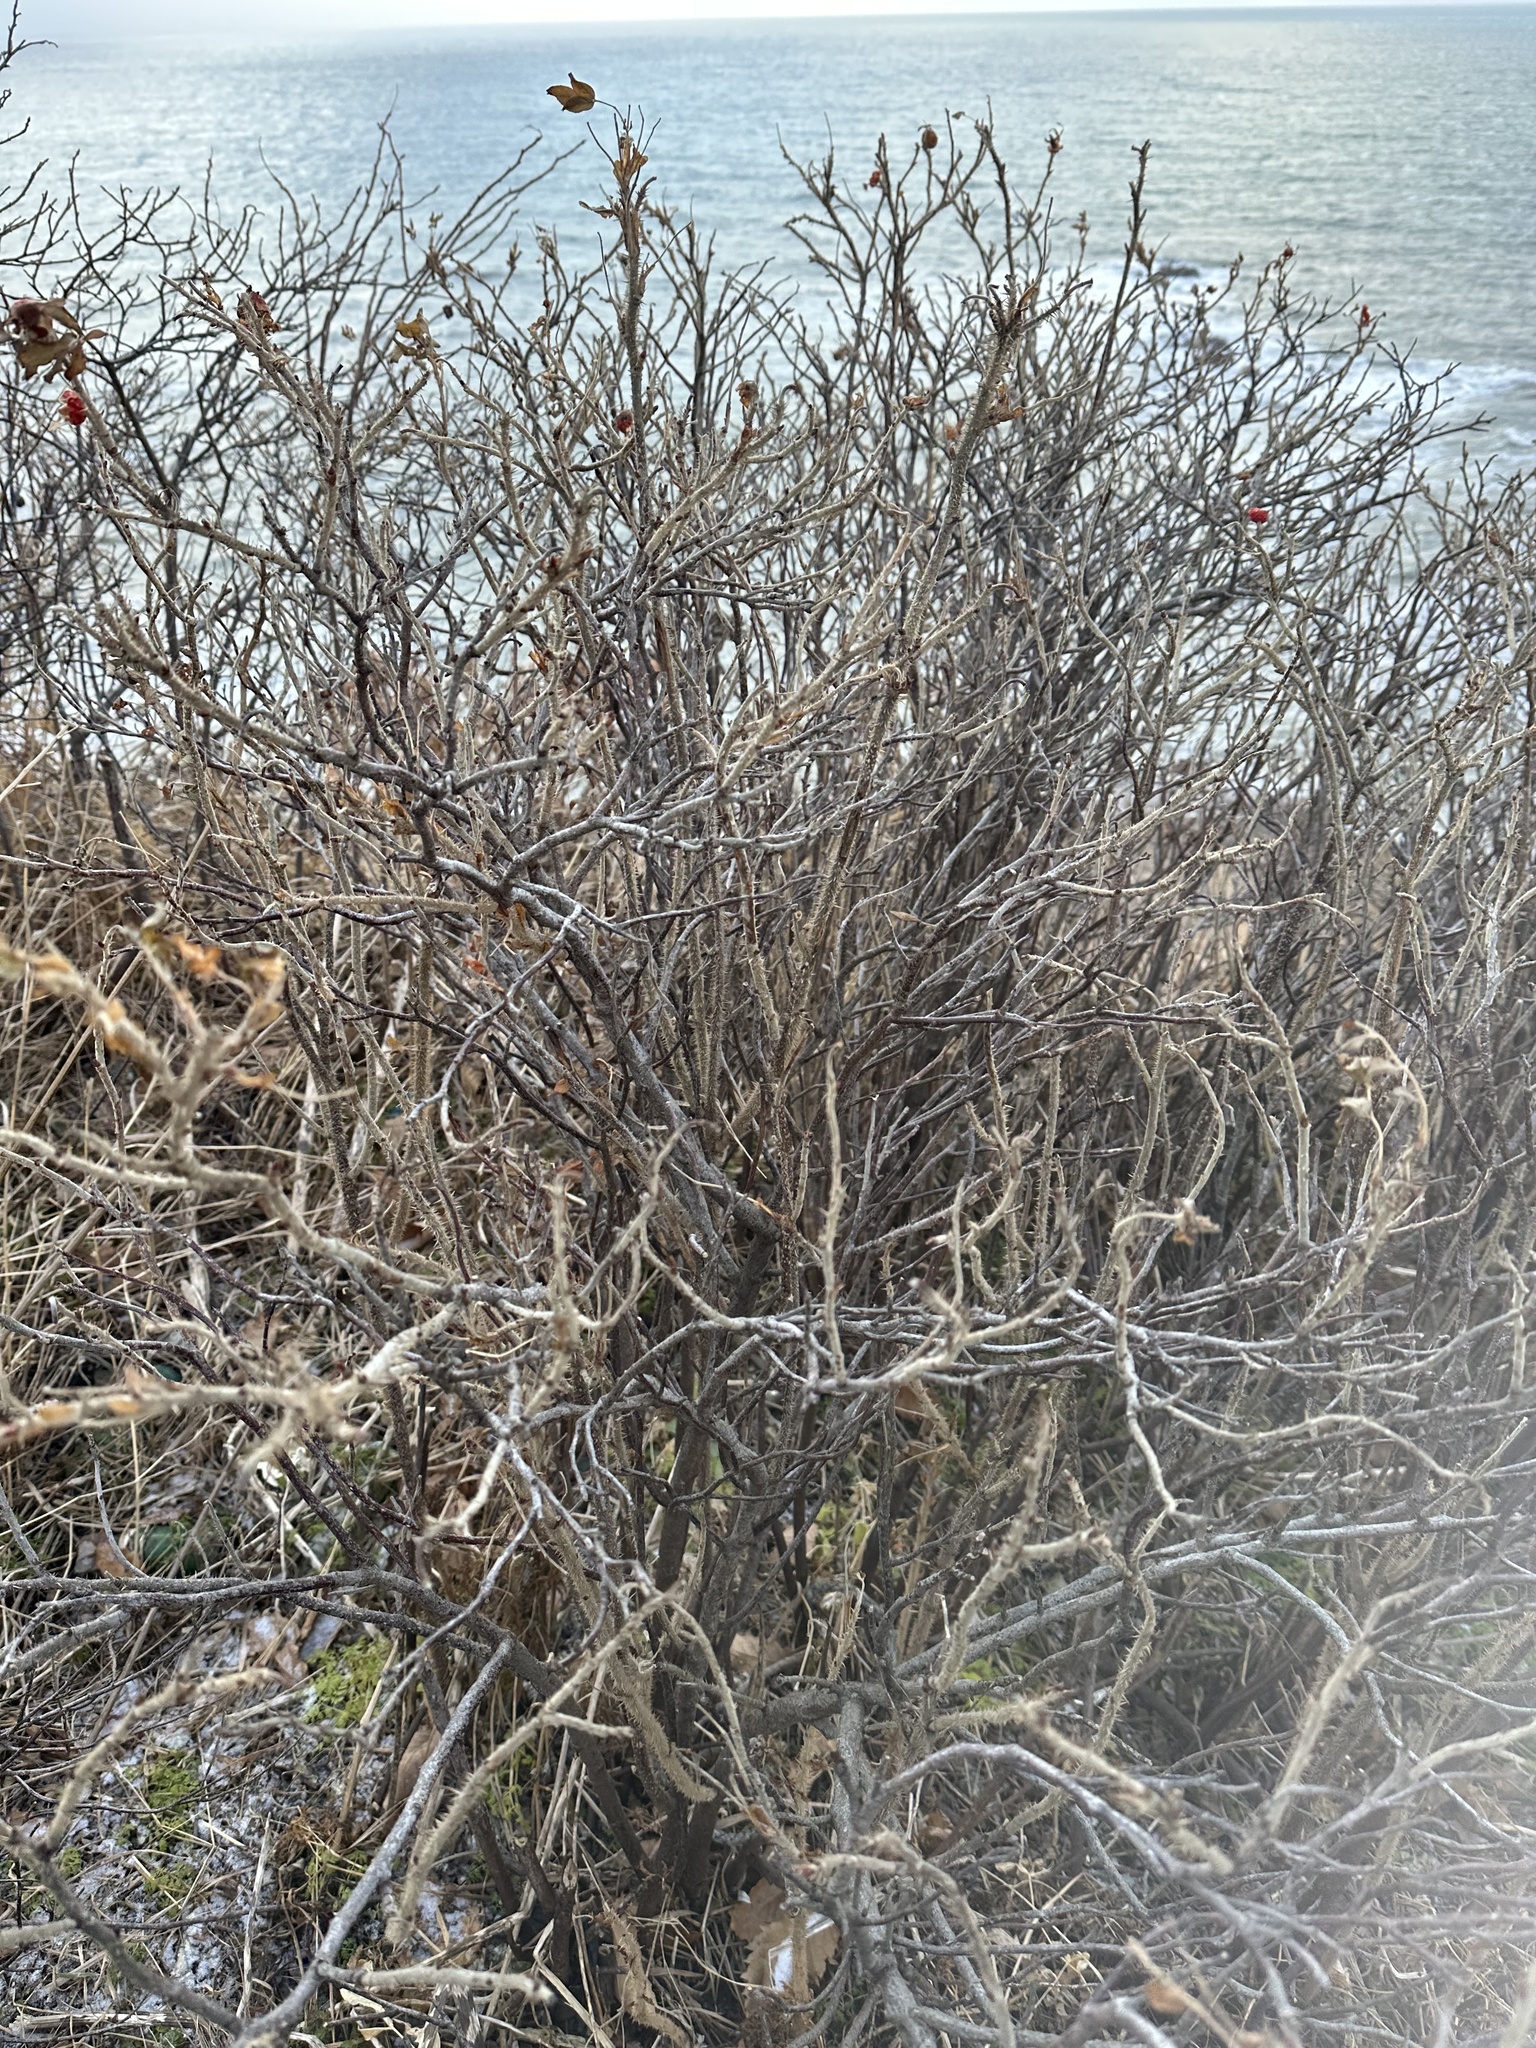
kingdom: Plantae
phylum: Tracheophyta
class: Magnoliopsida
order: Rosales
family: Rosaceae
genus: Rosa
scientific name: Rosa rugosa
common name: Japanese rose
